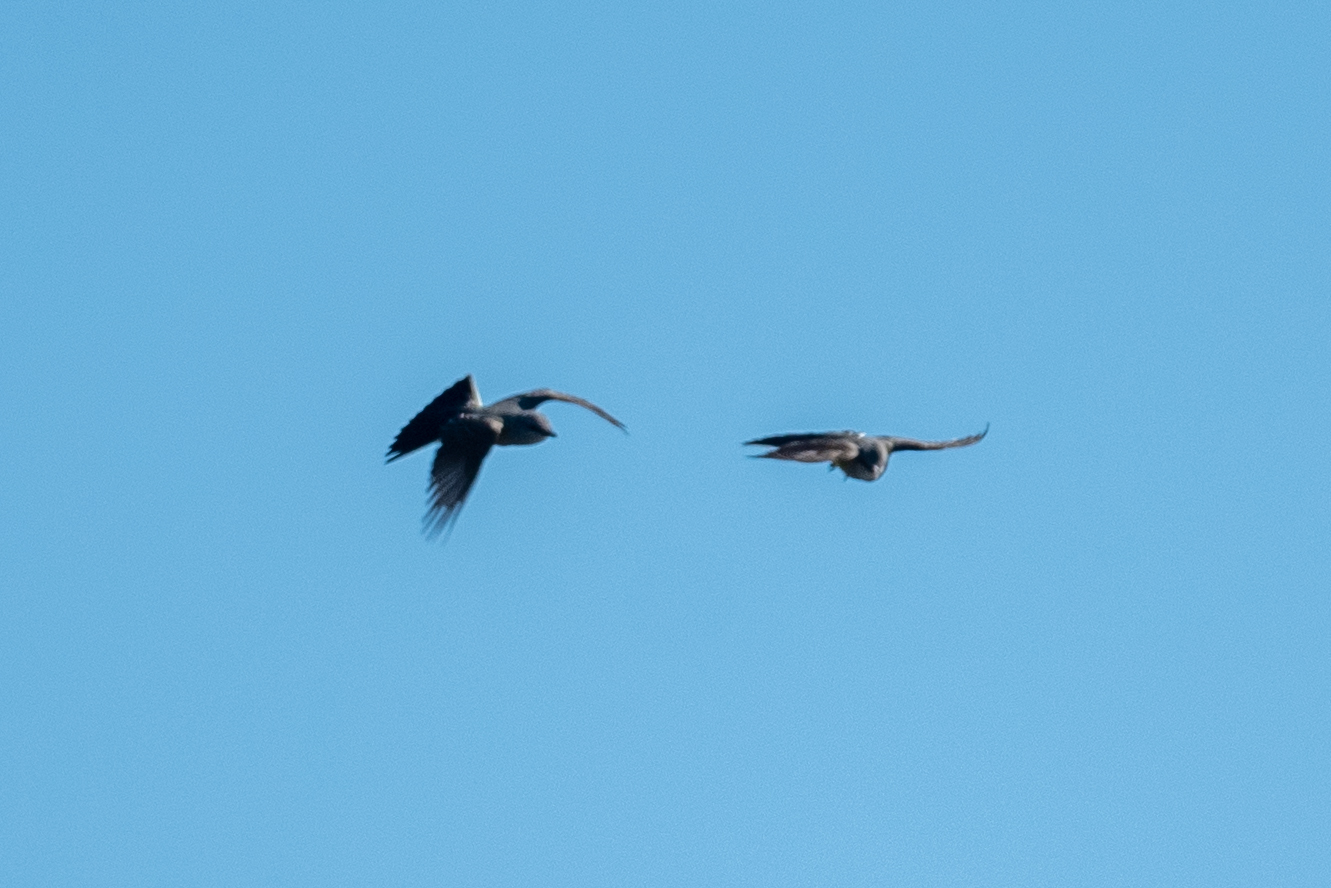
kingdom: Animalia
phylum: Chordata
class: Aves
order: Passeriformes
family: Tyrannidae
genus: Tyrannus
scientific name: Tyrannus verticalis
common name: Western kingbird
